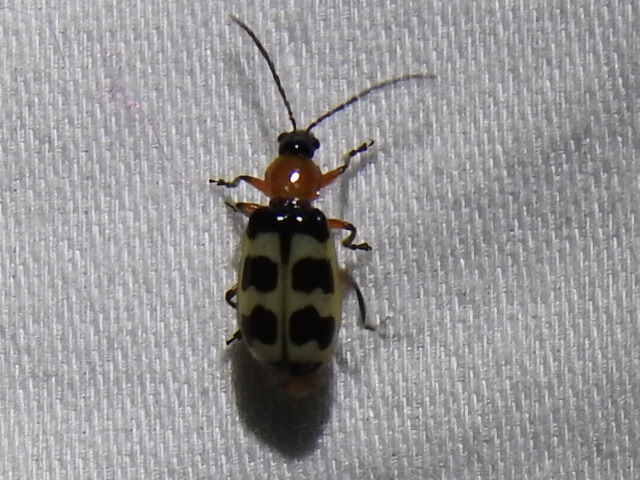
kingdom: Animalia
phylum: Arthropoda
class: Insecta
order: Coleoptera
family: Chrysomelidae
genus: Paranapiacaba
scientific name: Paranapiacaba tricincta
